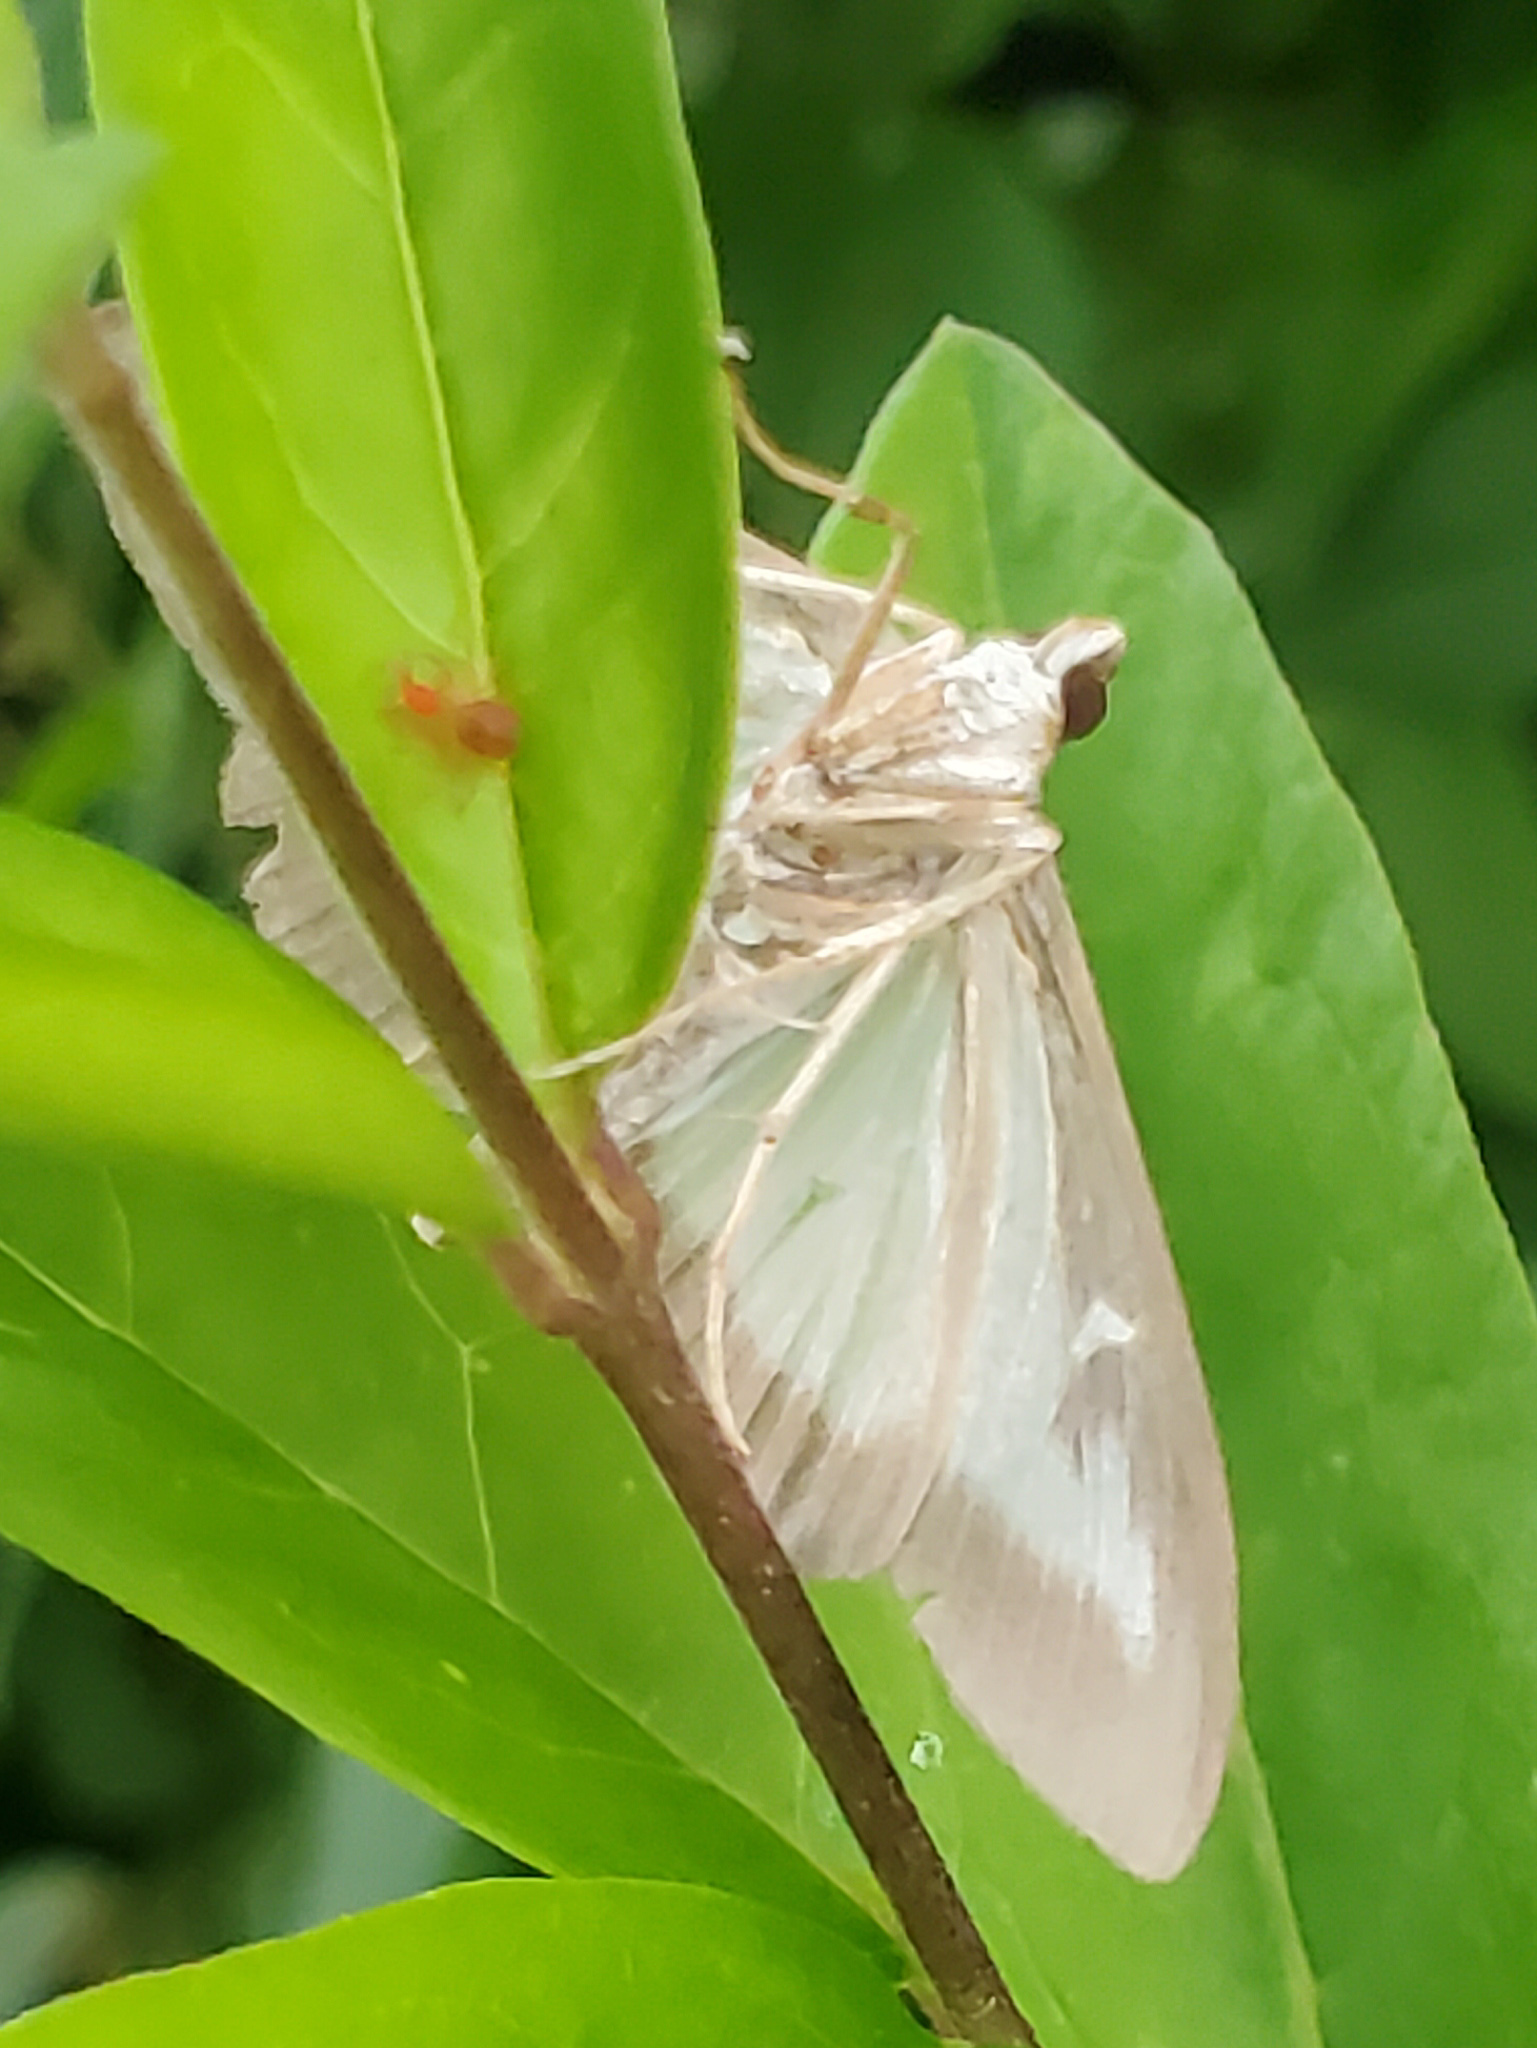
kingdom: Animalia
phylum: Arthropoda
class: Insecta
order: Lepidoptera
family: Crambidae
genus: Cydalima
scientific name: Cydalima perspectalis
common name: Box tree moth
